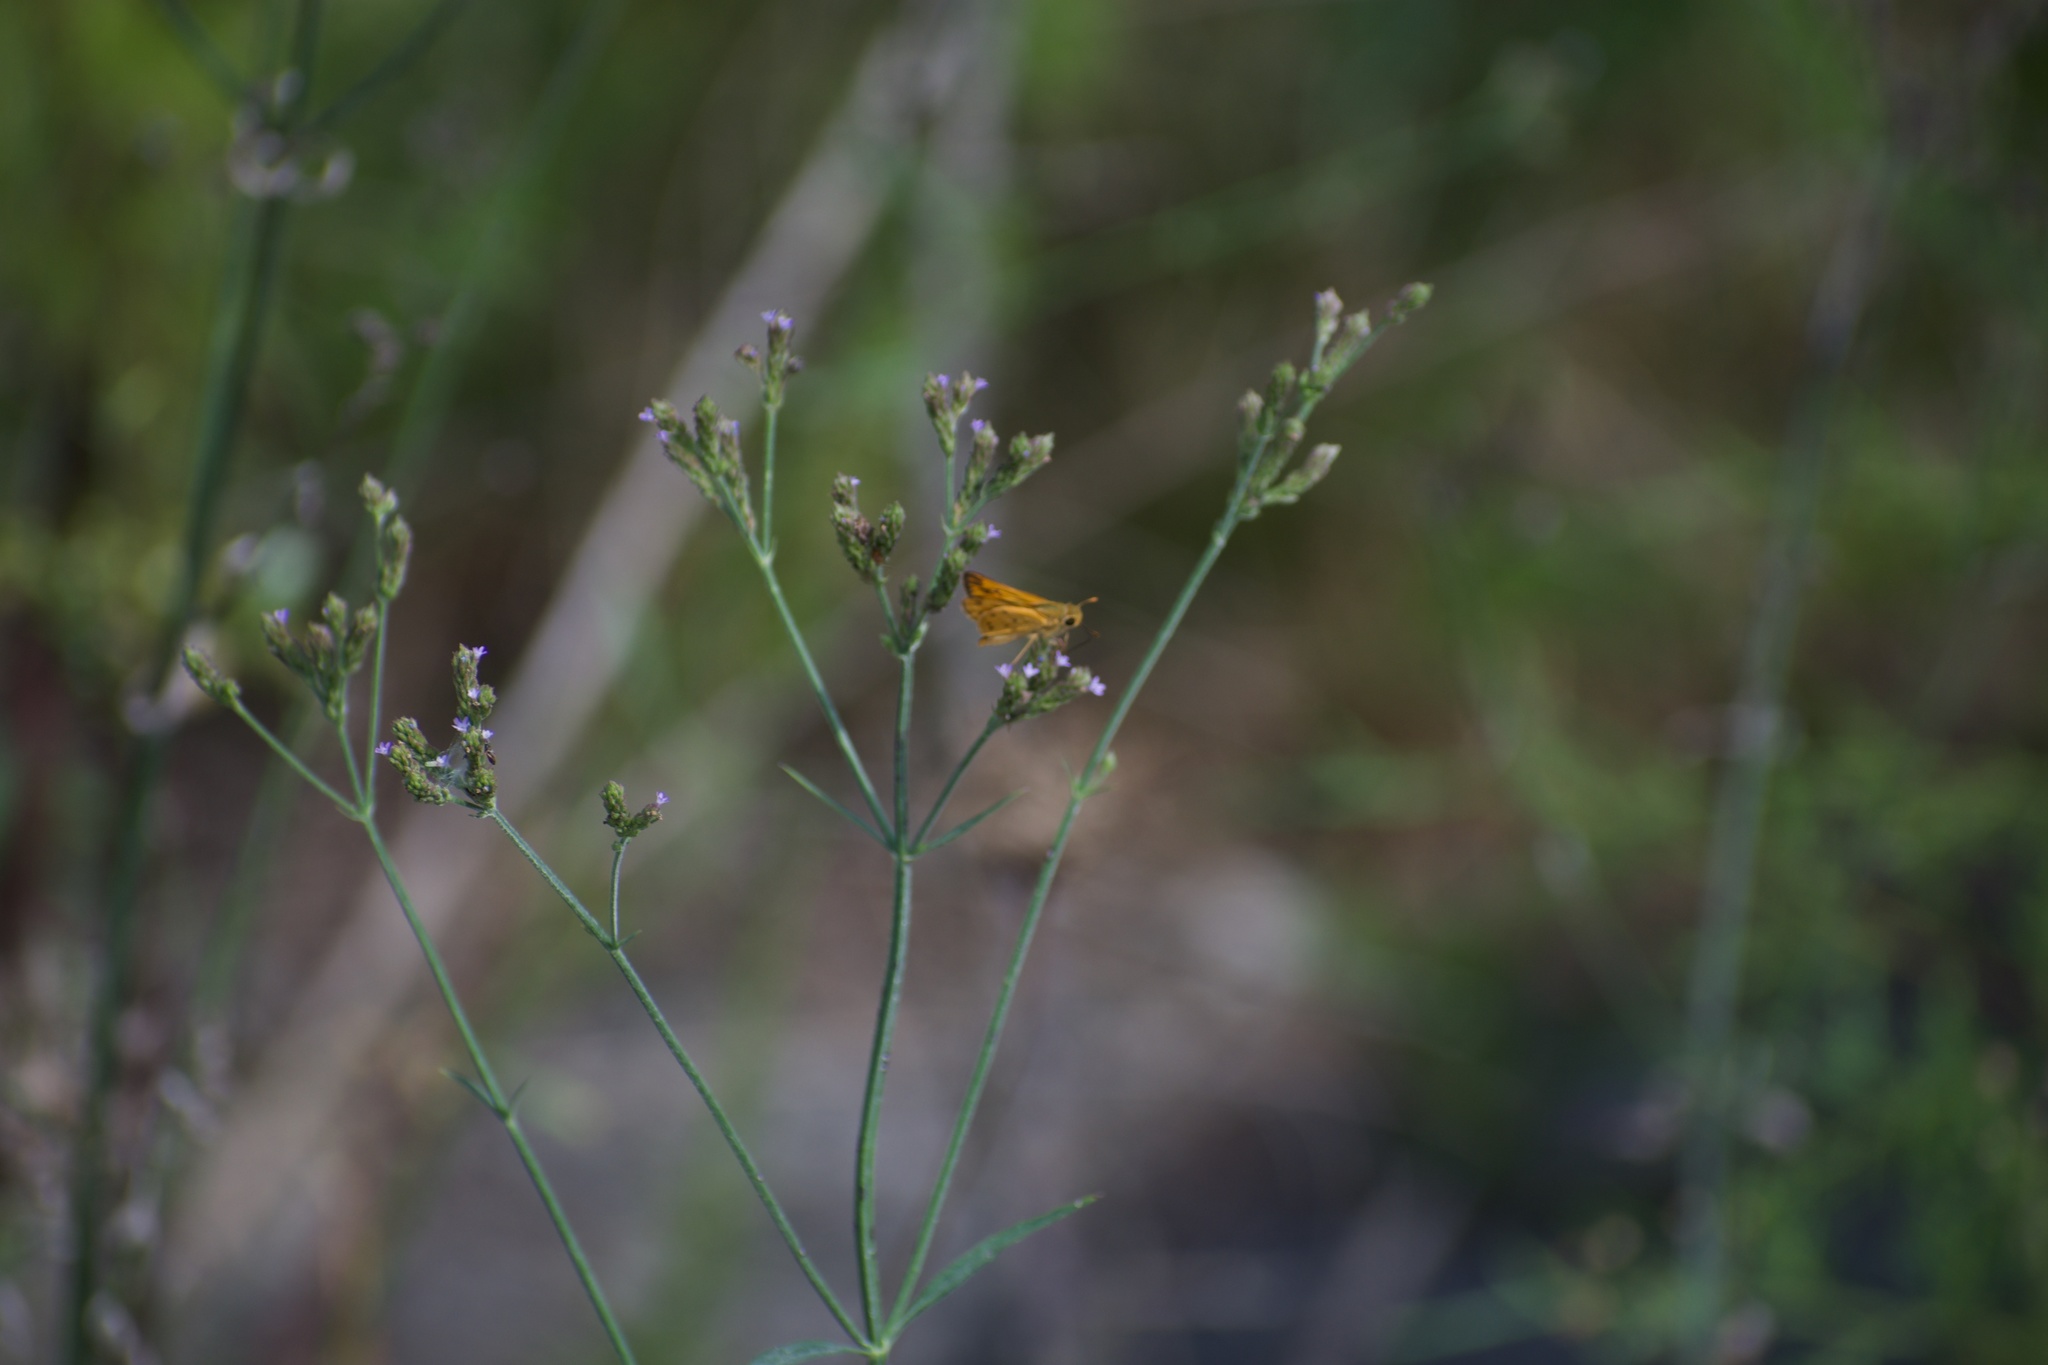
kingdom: Animalia
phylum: Arthropoda
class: Insecta
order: Lepidoptera
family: Hesperiidae
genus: Hylephila
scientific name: Hylephila phyleus
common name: Fiery skipper
